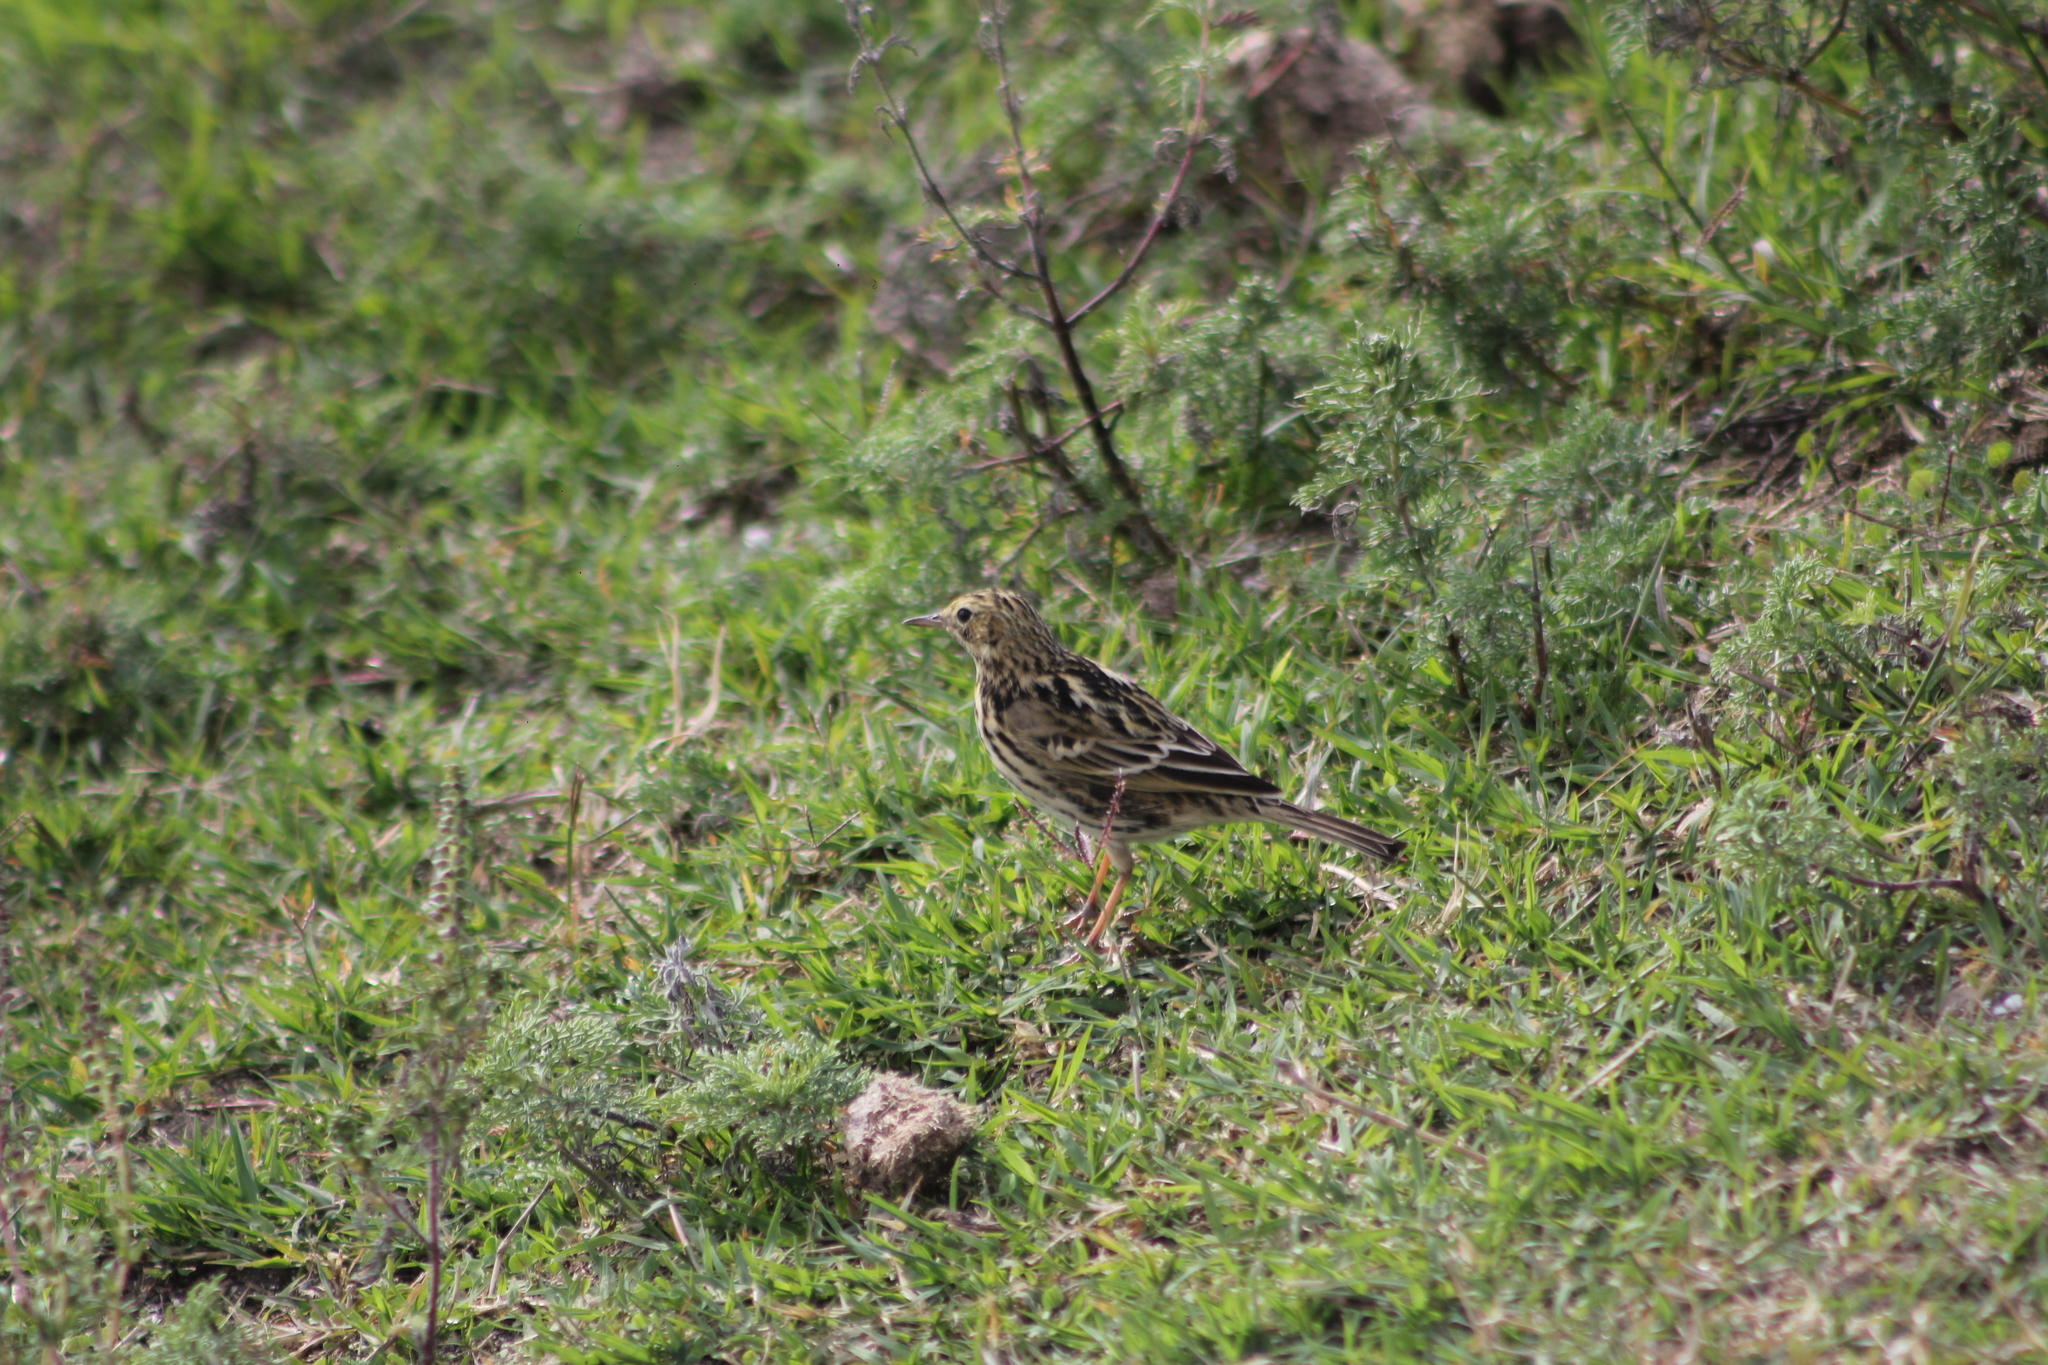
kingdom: Animalia
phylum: Chordata
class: Aves
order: Passeriformes
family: Motacillidae
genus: Anthus
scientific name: Anthus correndera
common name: Correndera pipit
